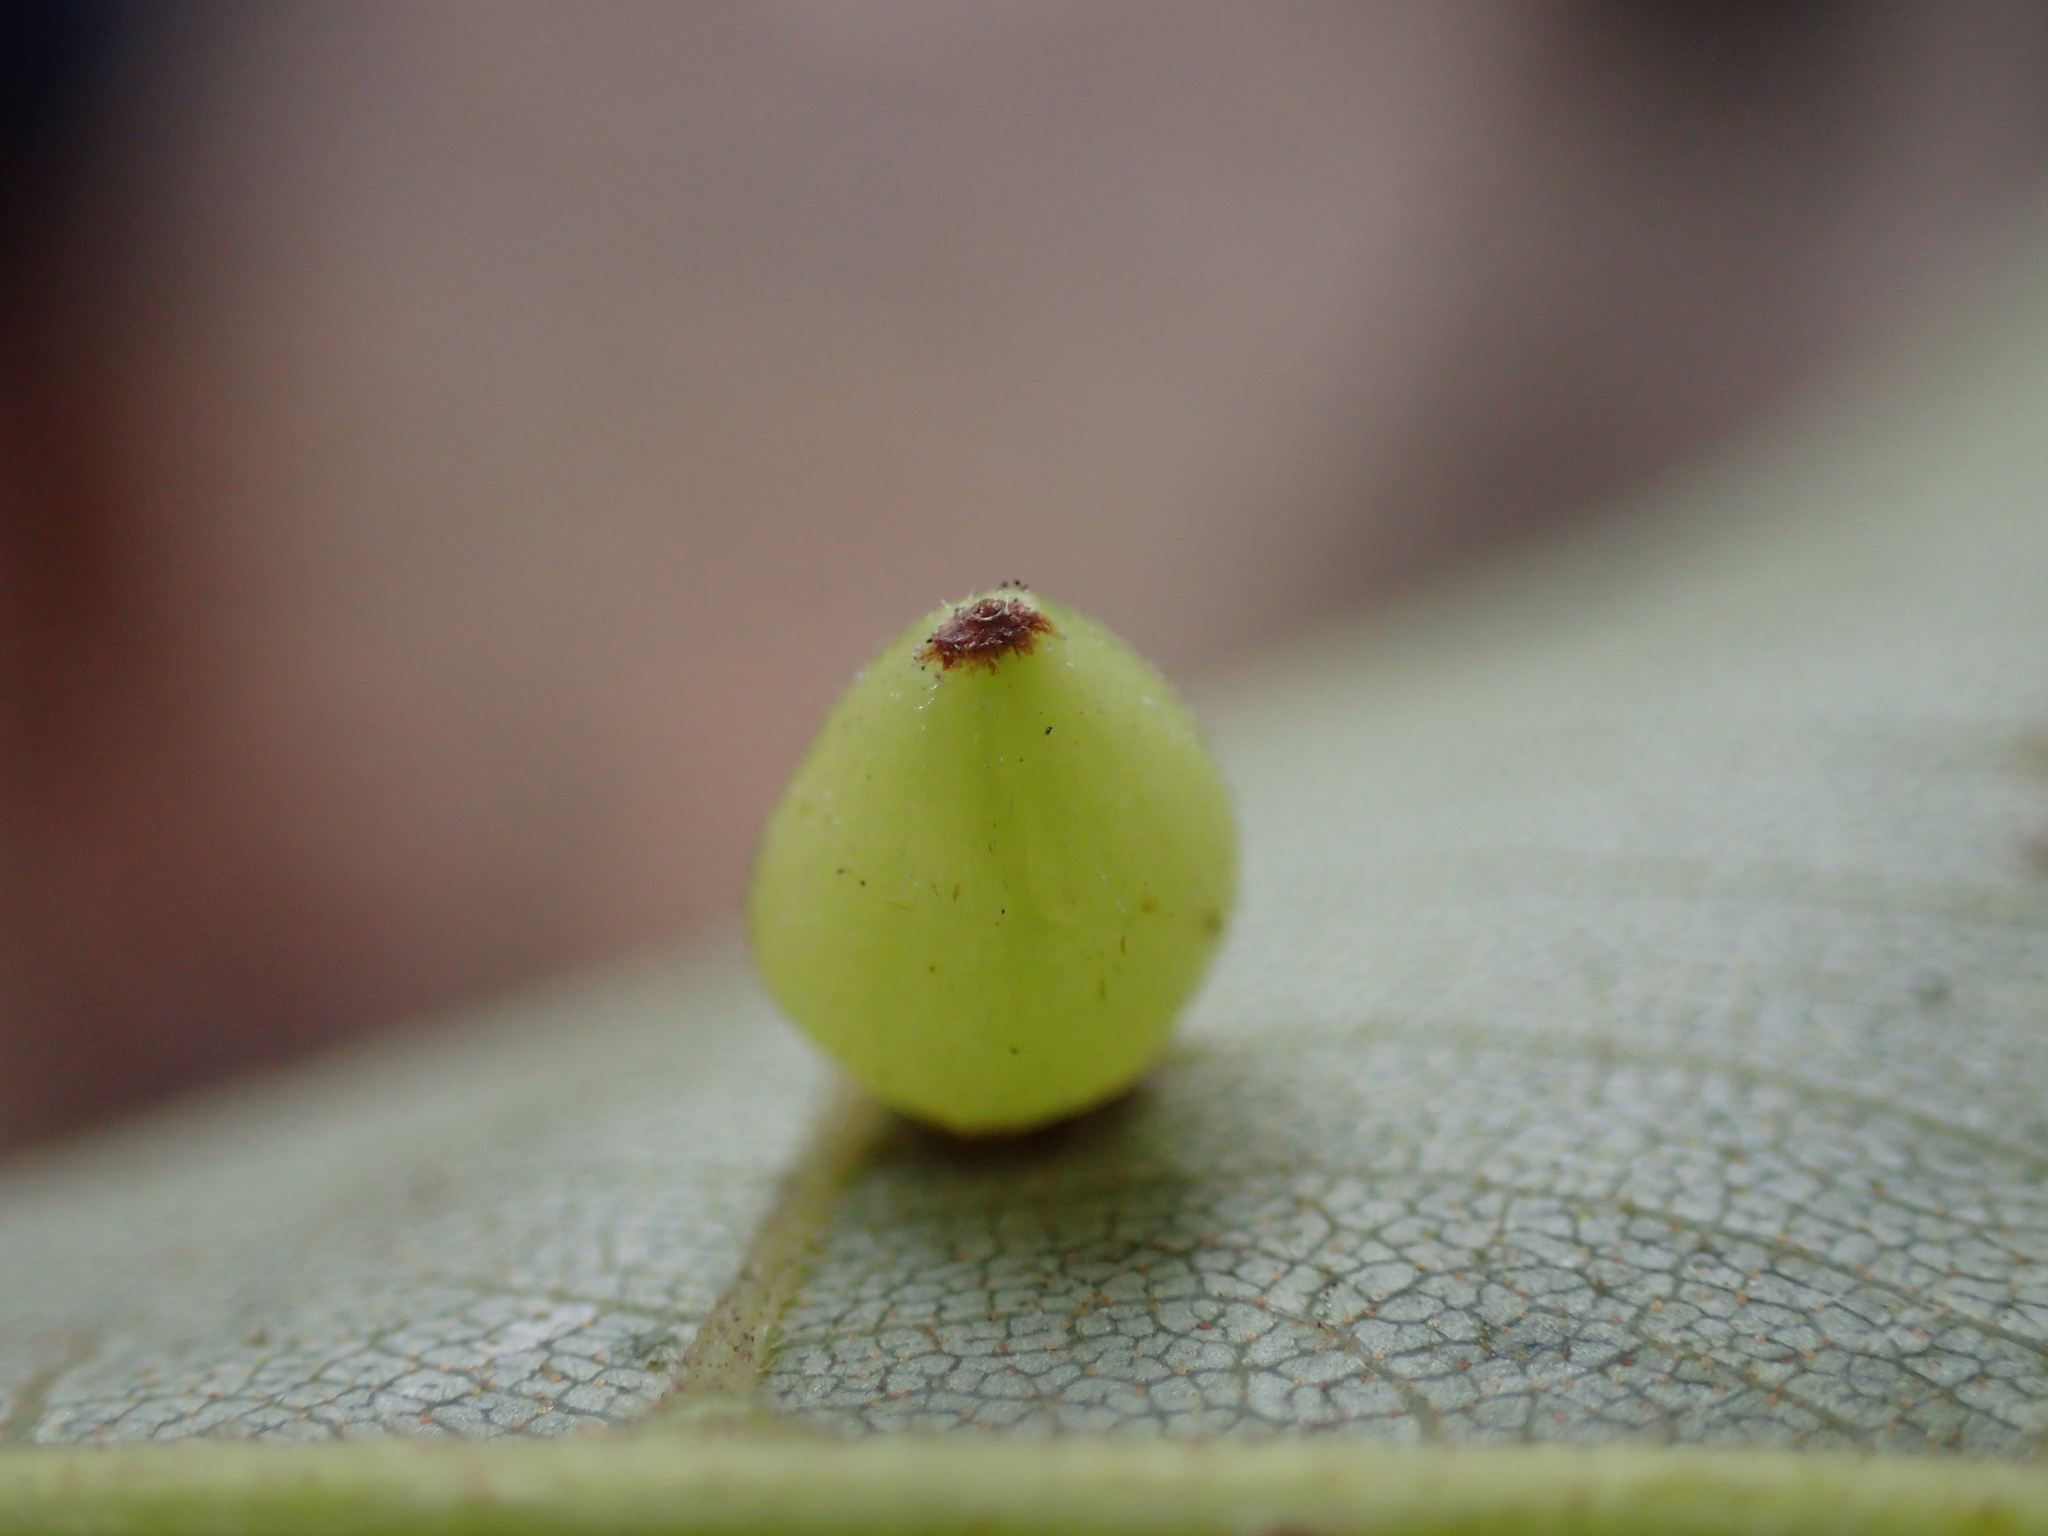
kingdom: Animalia
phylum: Arthropoda
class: Insecta
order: Diptera
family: Cecidomyiidae
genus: Caryomyia
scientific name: Caryomyia deflexipili
